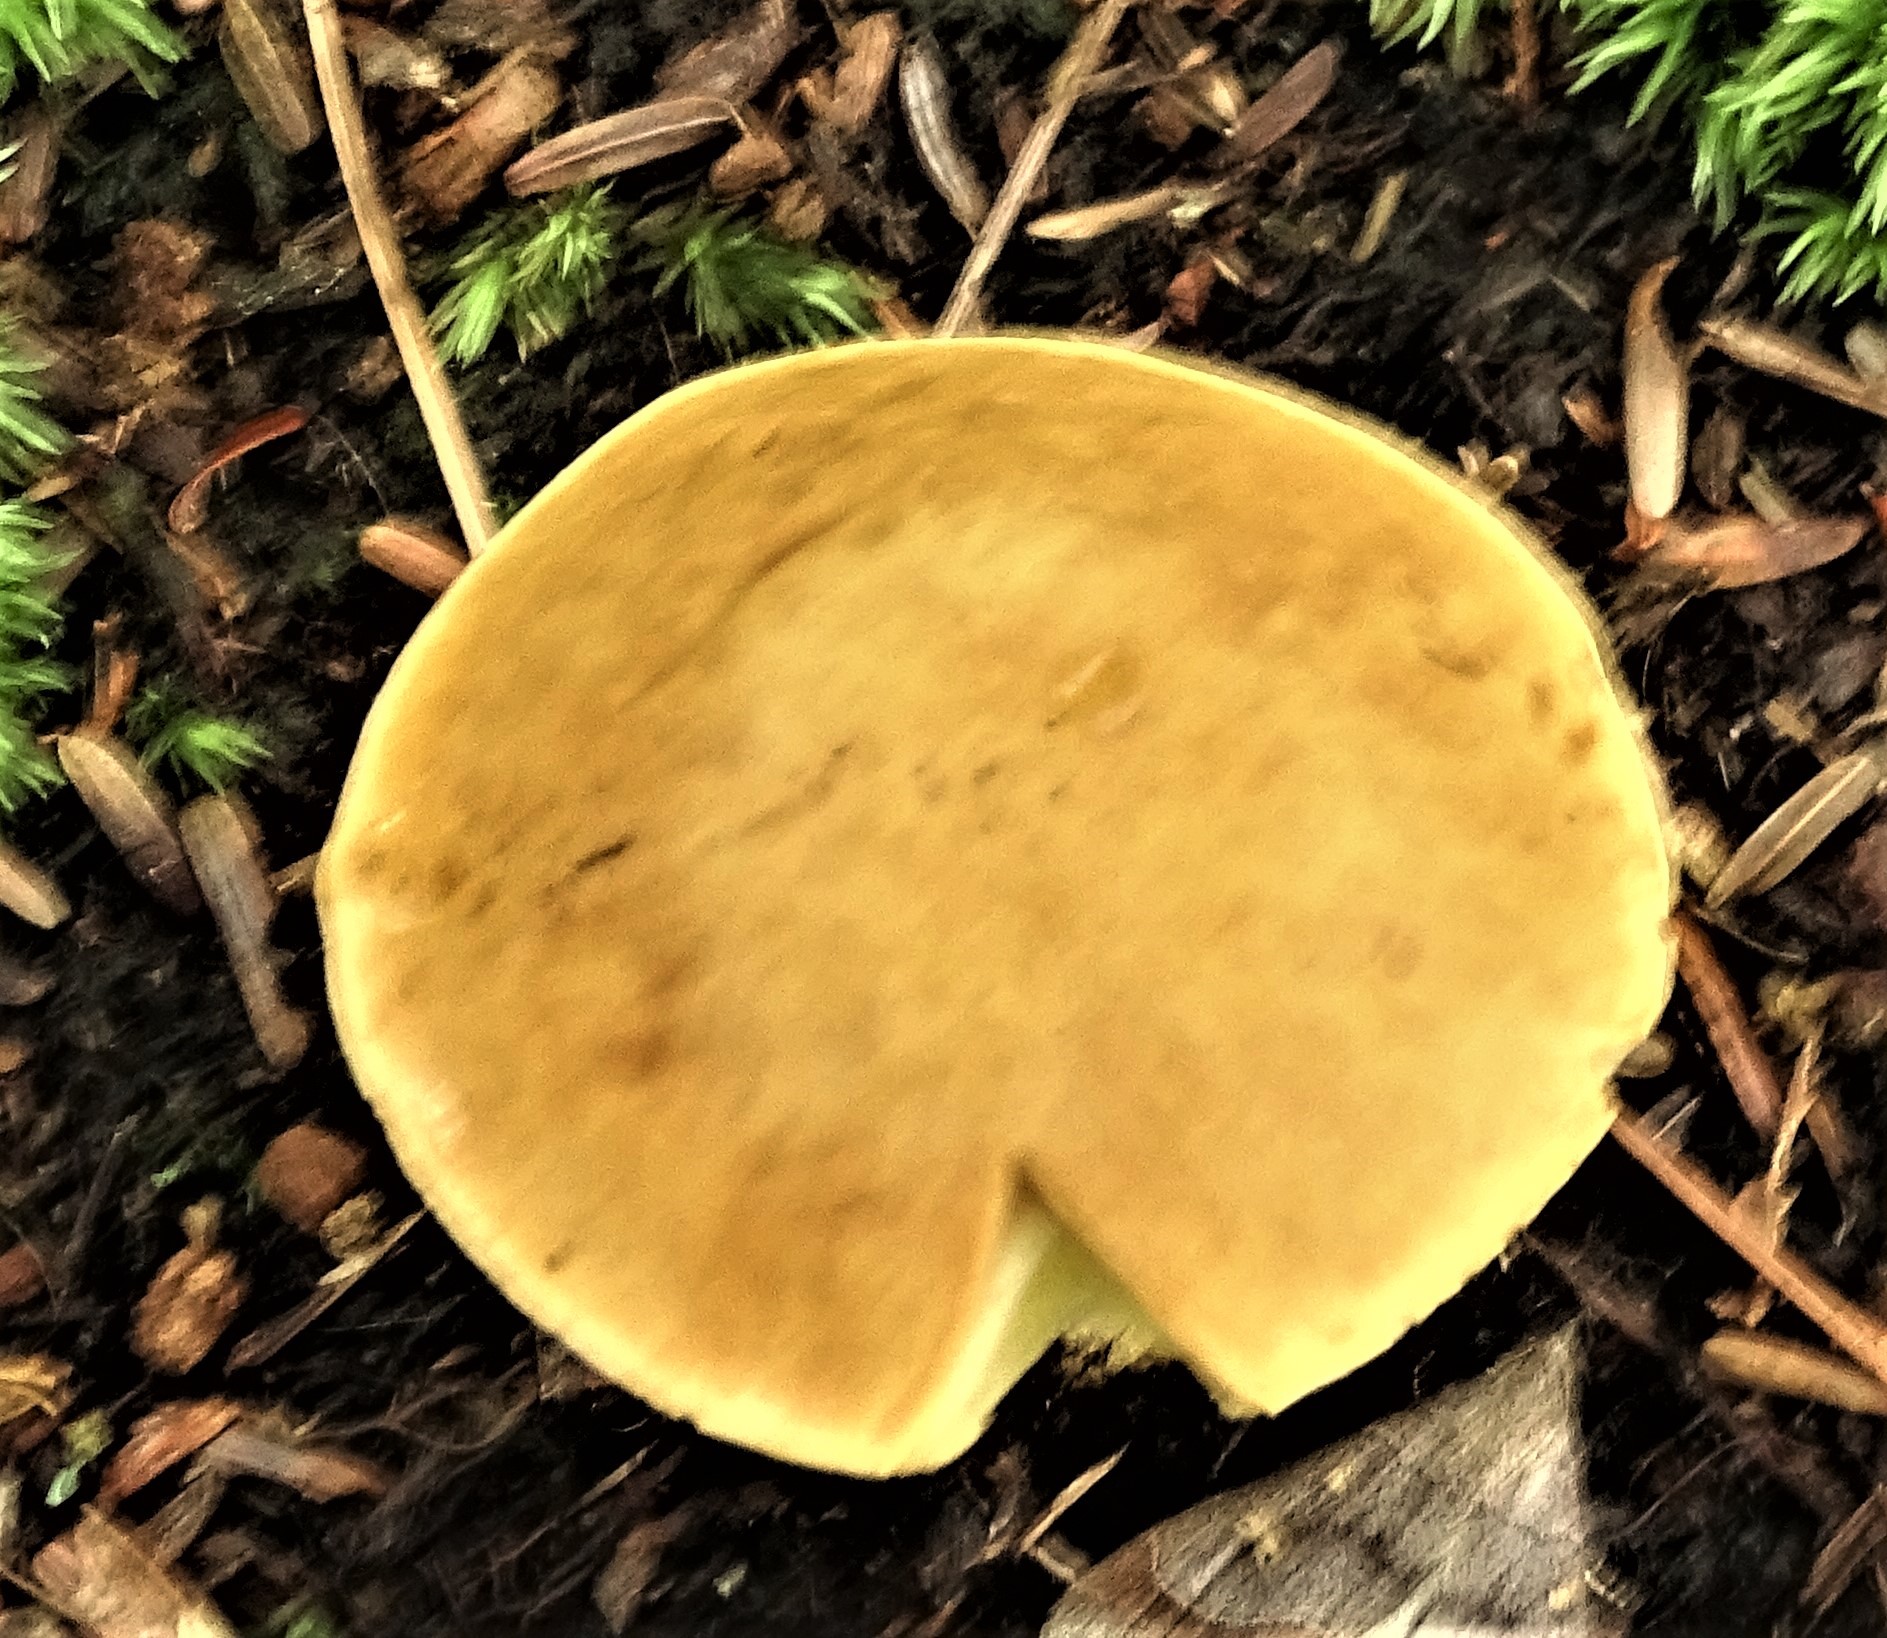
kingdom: Fungi
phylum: Basidiomycota
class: Agaricomycetes
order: Boletales
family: Boletaceae
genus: Hemileccinum
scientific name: Hemileccinum subglabripes
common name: Smoothish-stemmed bolete
